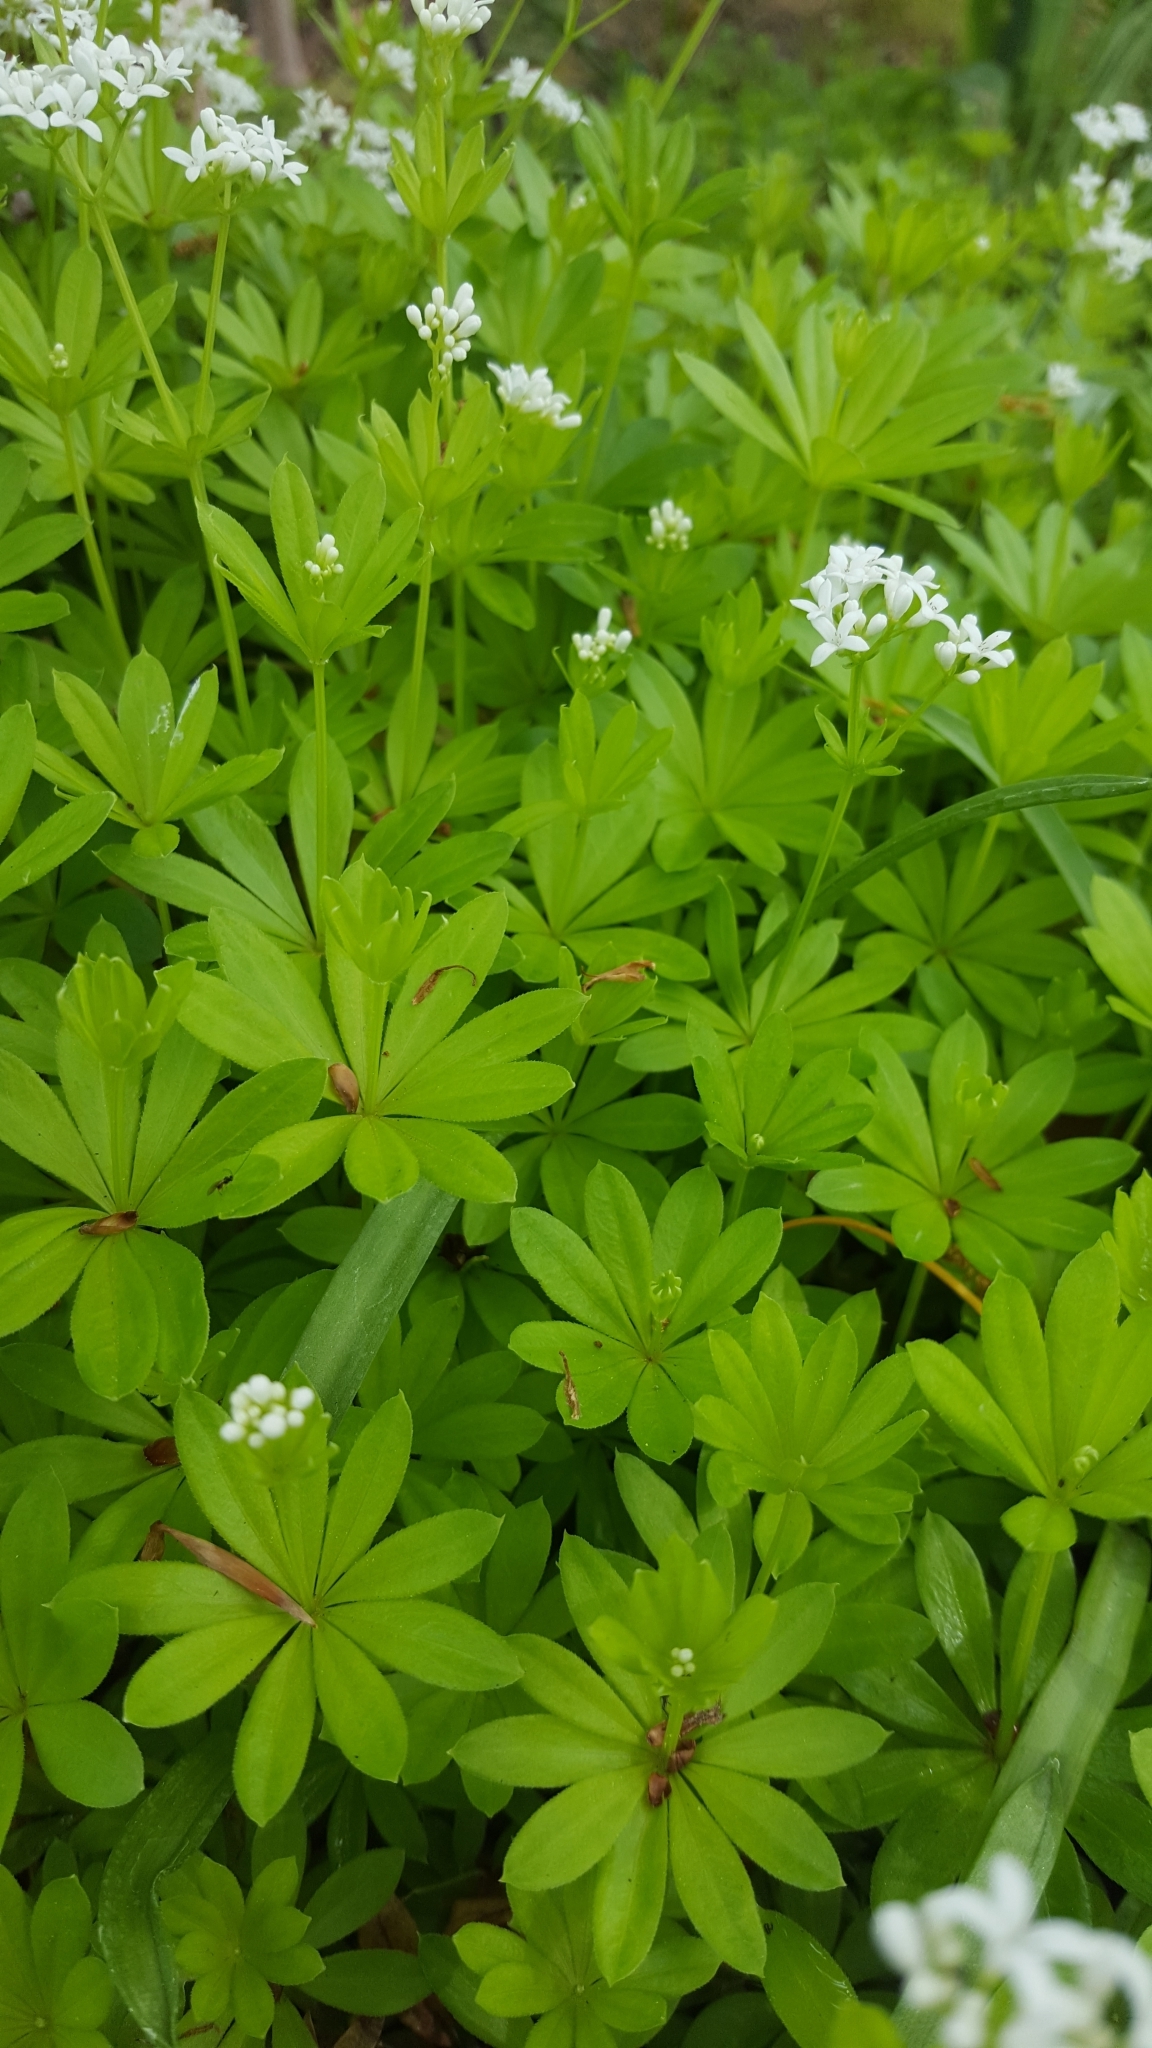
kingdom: Plantae
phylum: Tracheophyta
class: Magnoliopsida
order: Gentianales
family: Rubiaceae
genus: Galium
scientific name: Galium odoratum
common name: Sweet woodruff
